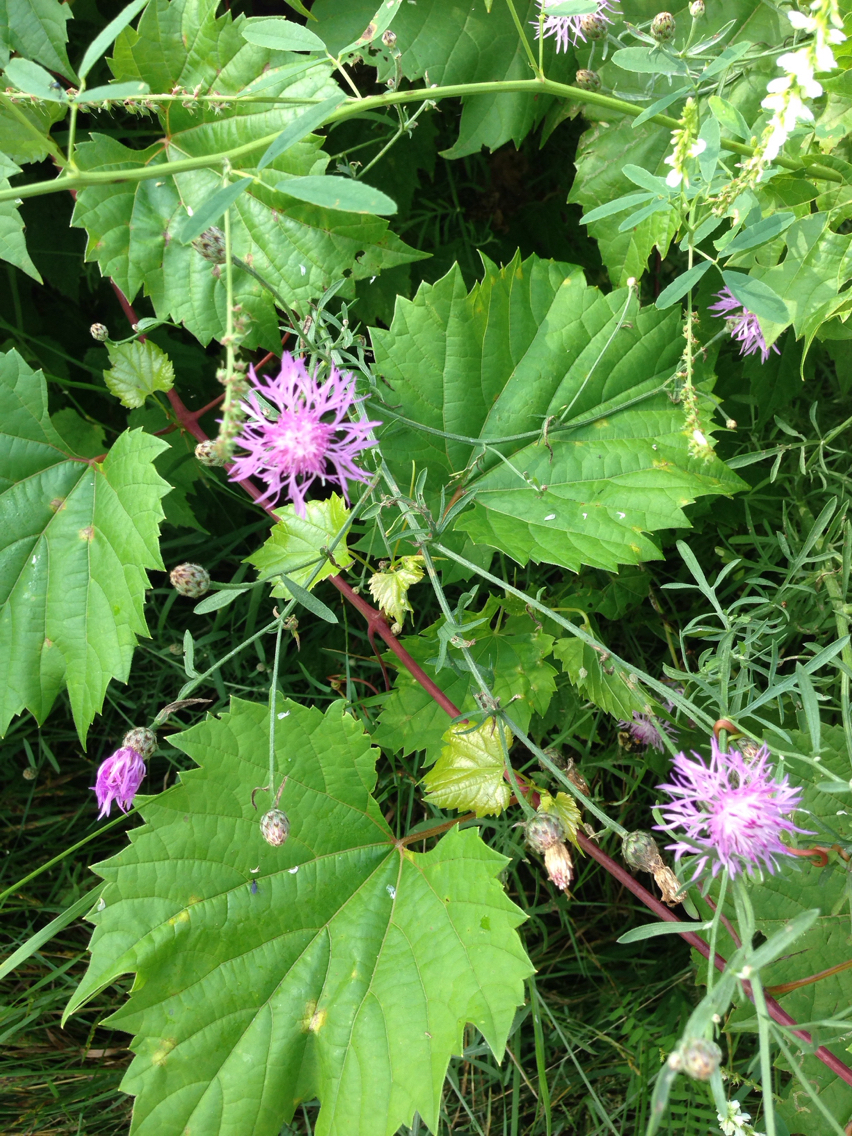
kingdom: Plantae
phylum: Tracheophyta
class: Magnoliopsida
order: Asterales
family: Asteraceae
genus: Centaurea
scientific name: Centaurea stoebe
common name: Spotted knapweed
